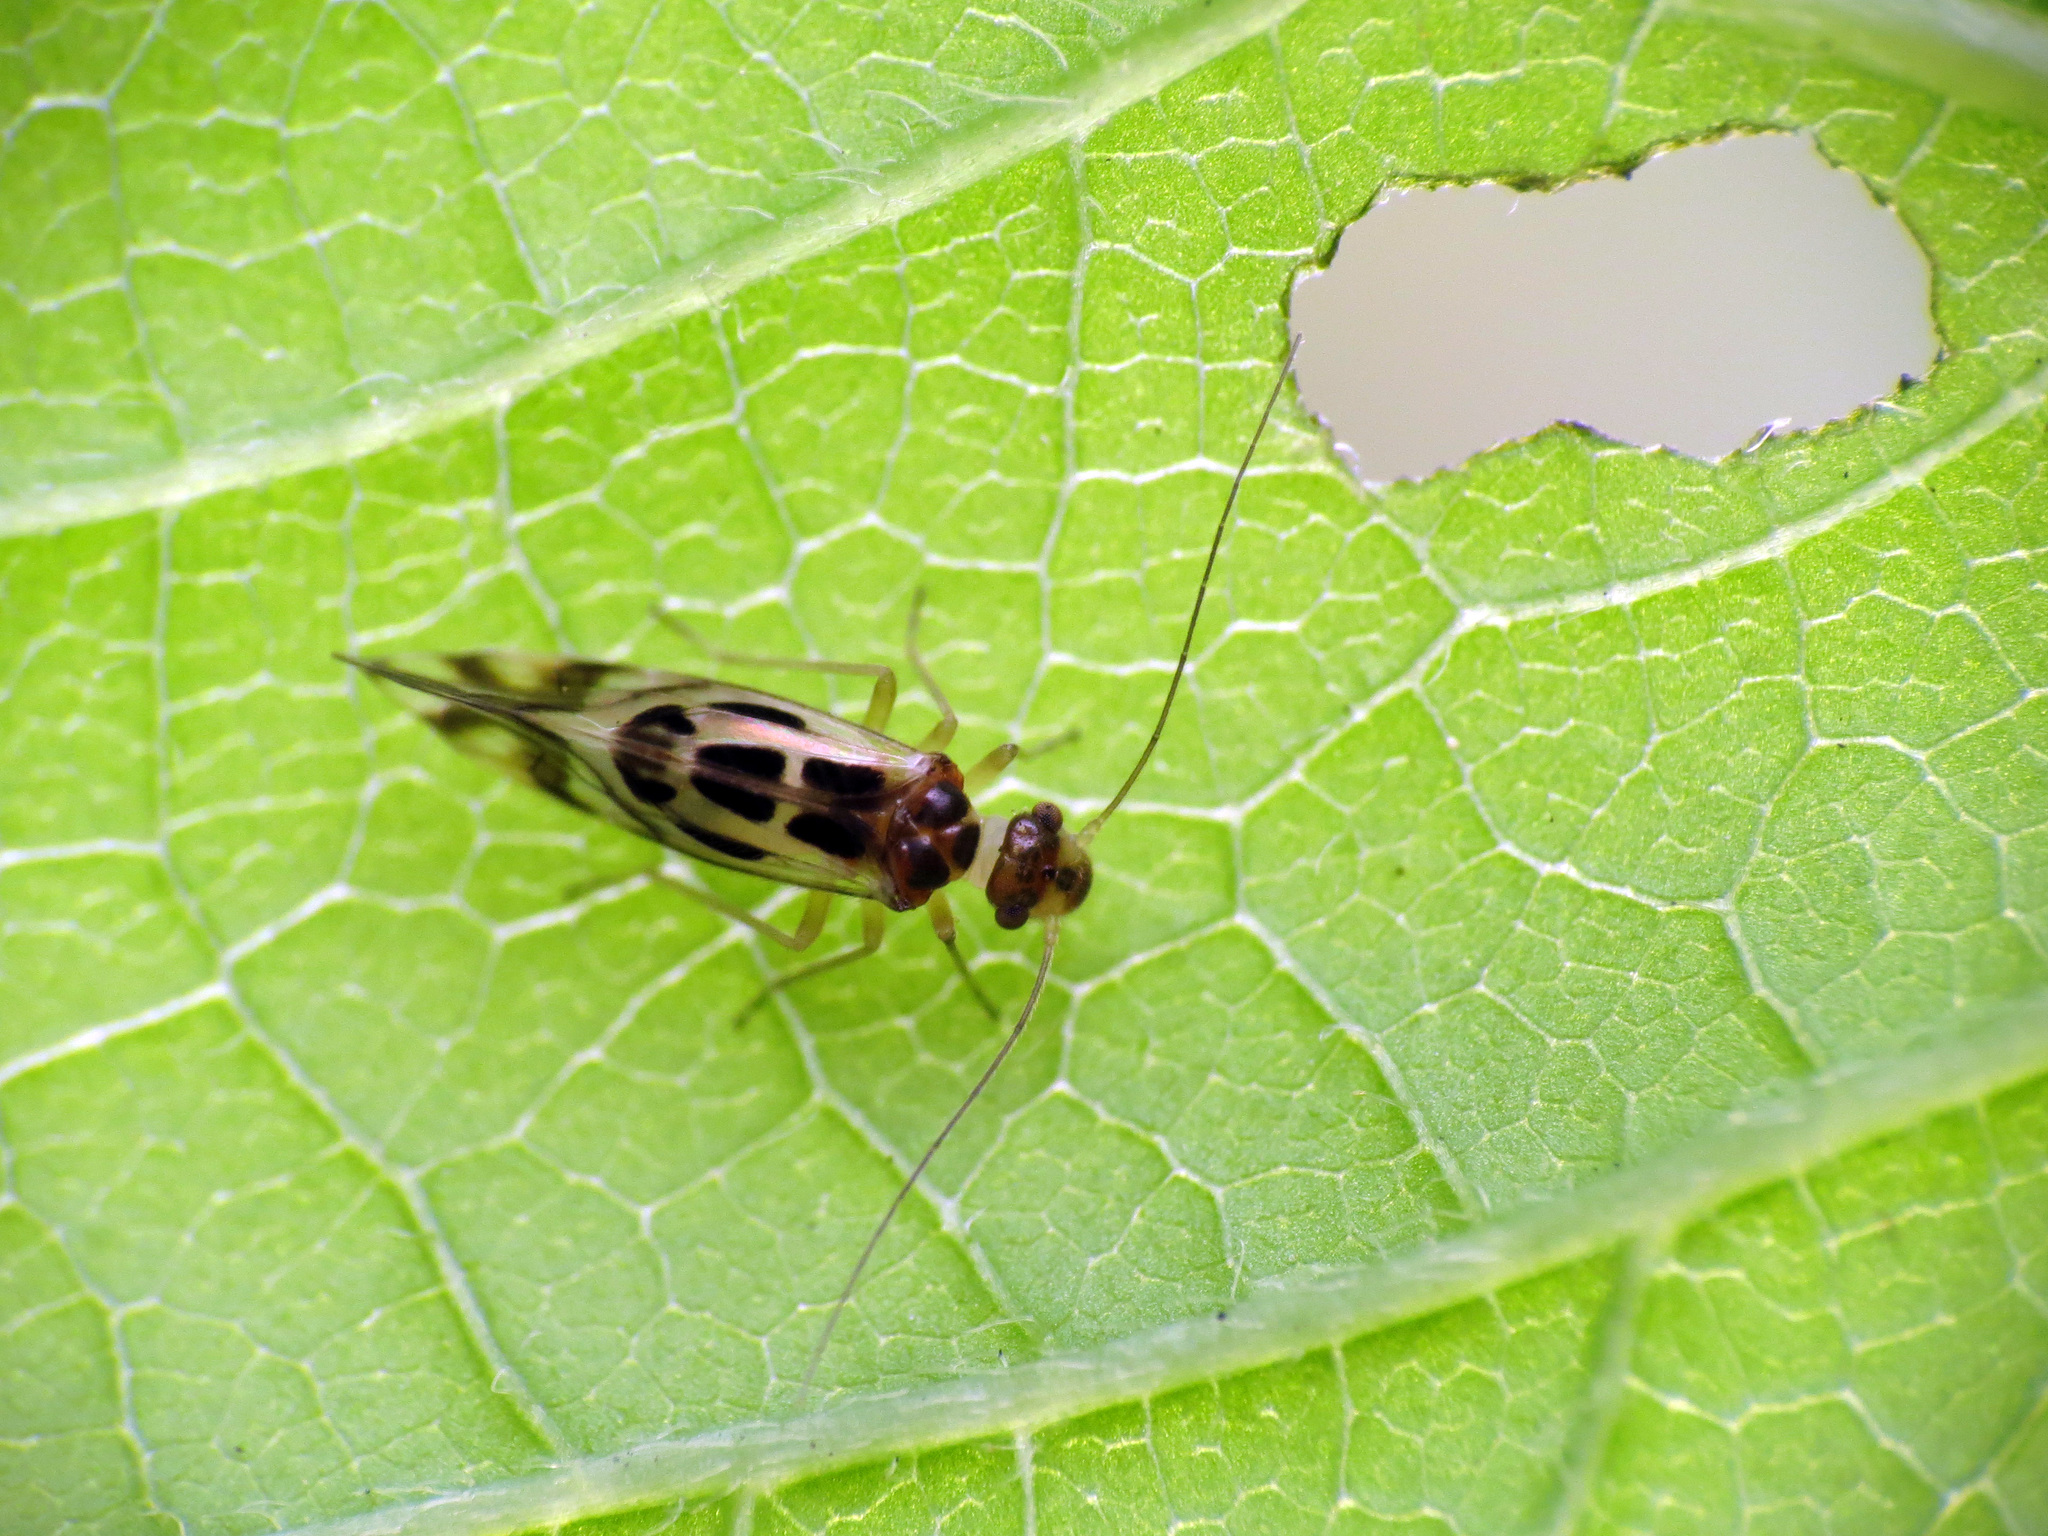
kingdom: Animalia
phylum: Arthropoda
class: Insecta
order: Psocodea
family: Stenopsocidae
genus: Graphopsocus
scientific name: Graphopsocus cruciatus
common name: Lizard bark louse
